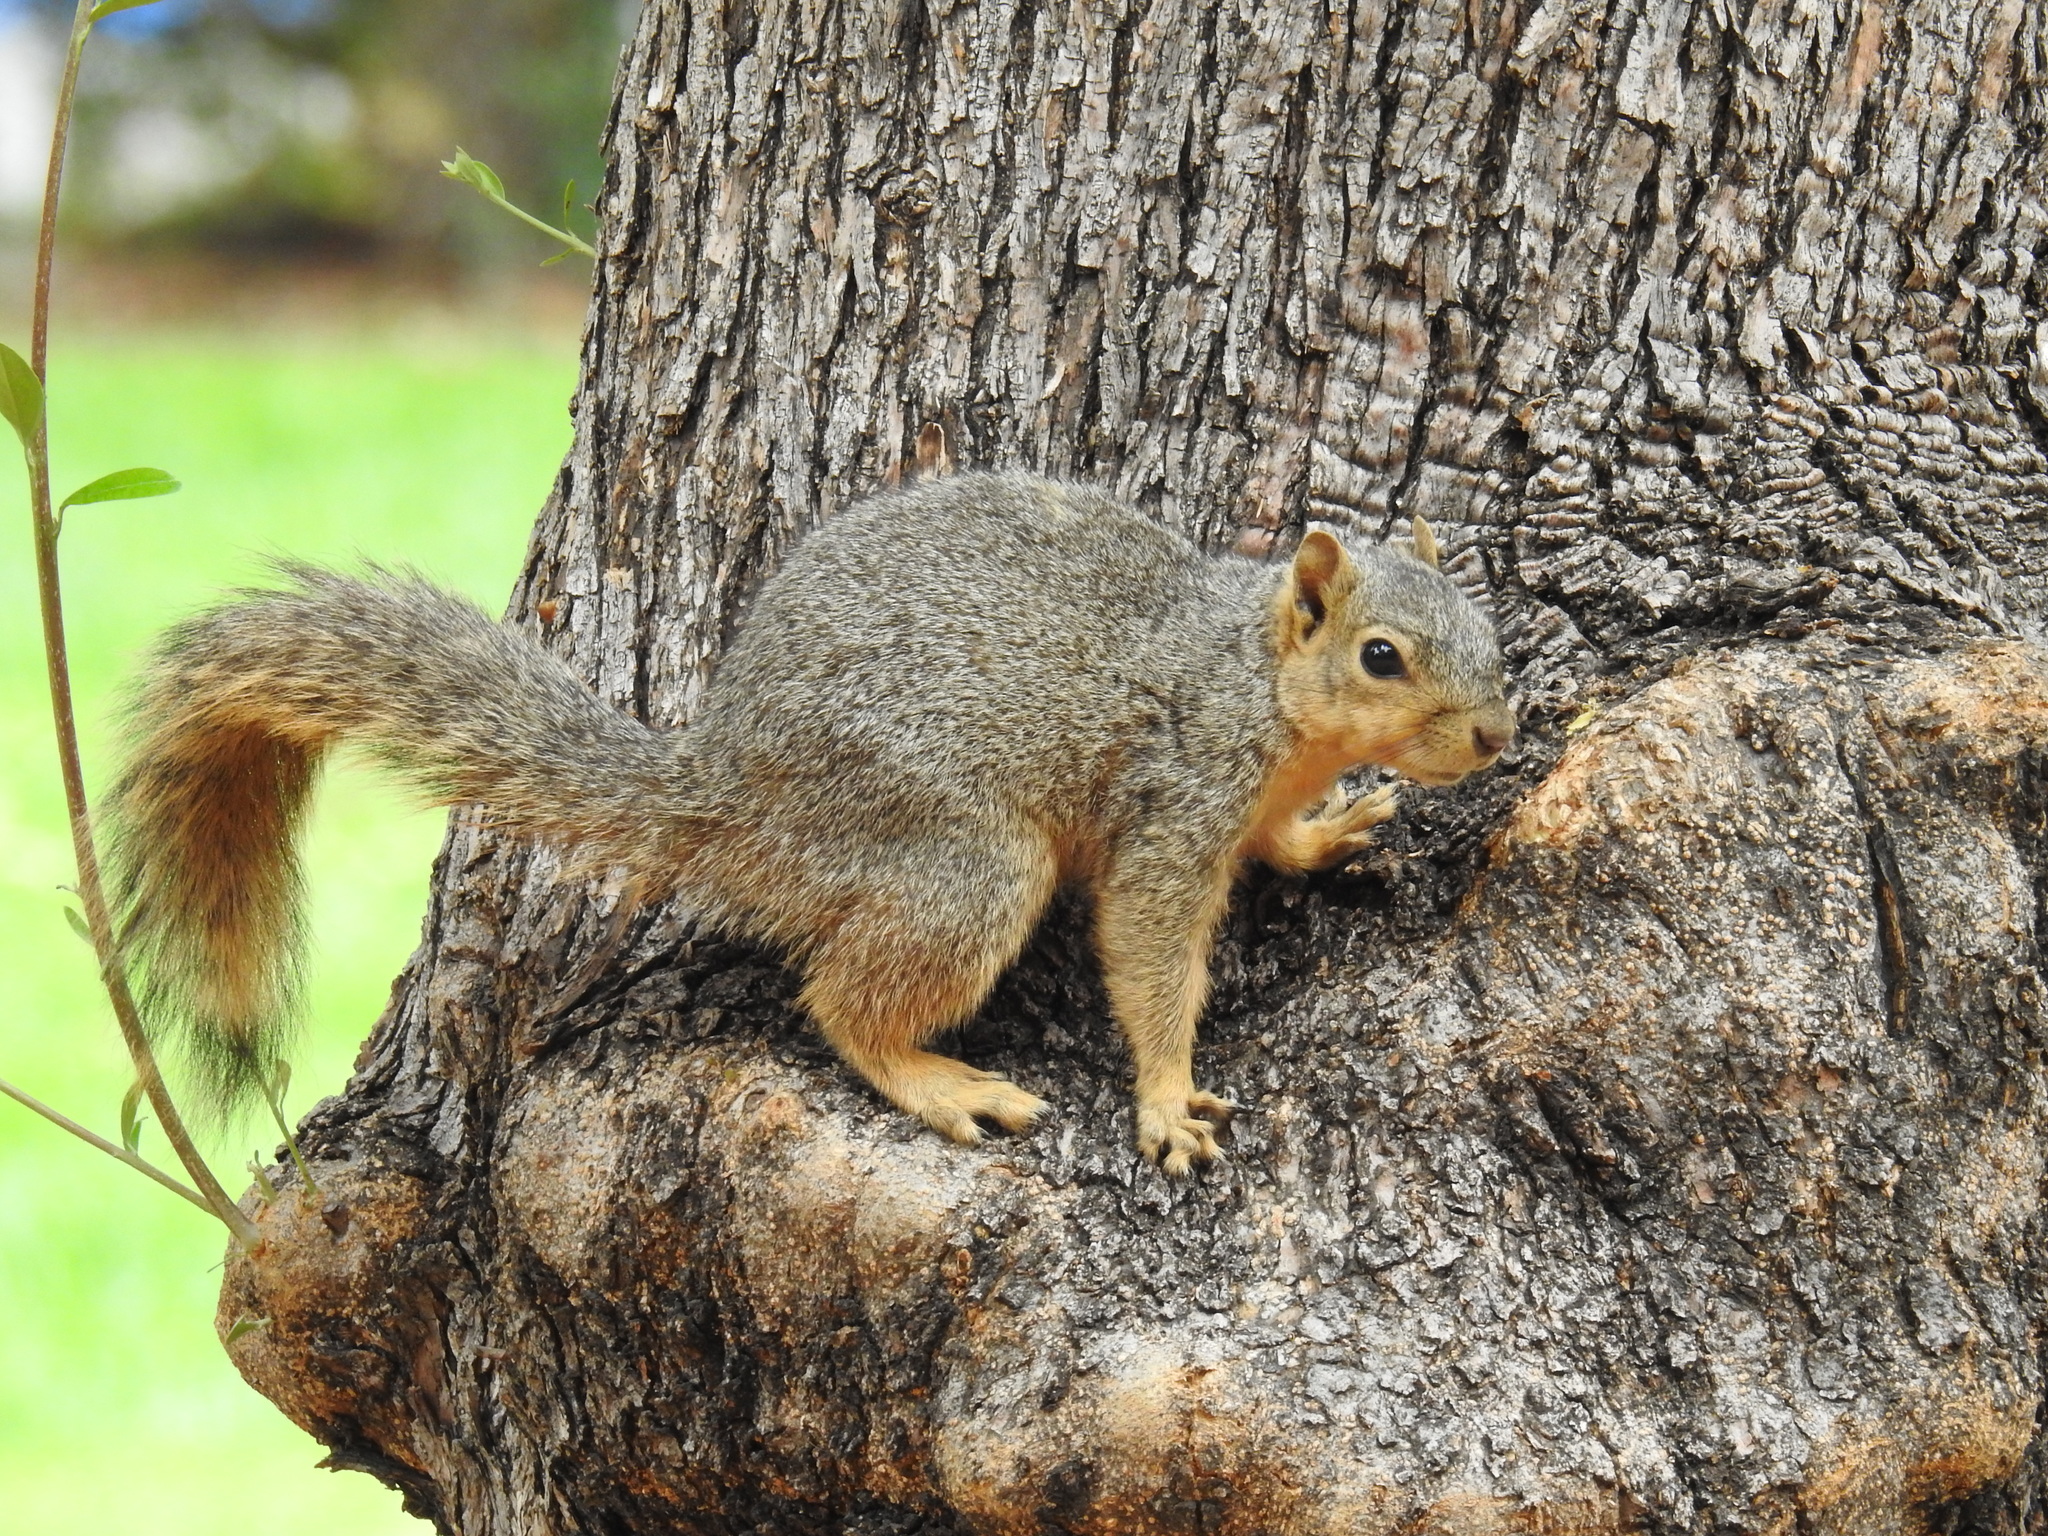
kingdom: Animalia
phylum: Chordata
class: Mammalia
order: Rodentia
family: Sciuridae
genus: Sciurus
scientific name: Sciurus niger
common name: Fox squirrel
